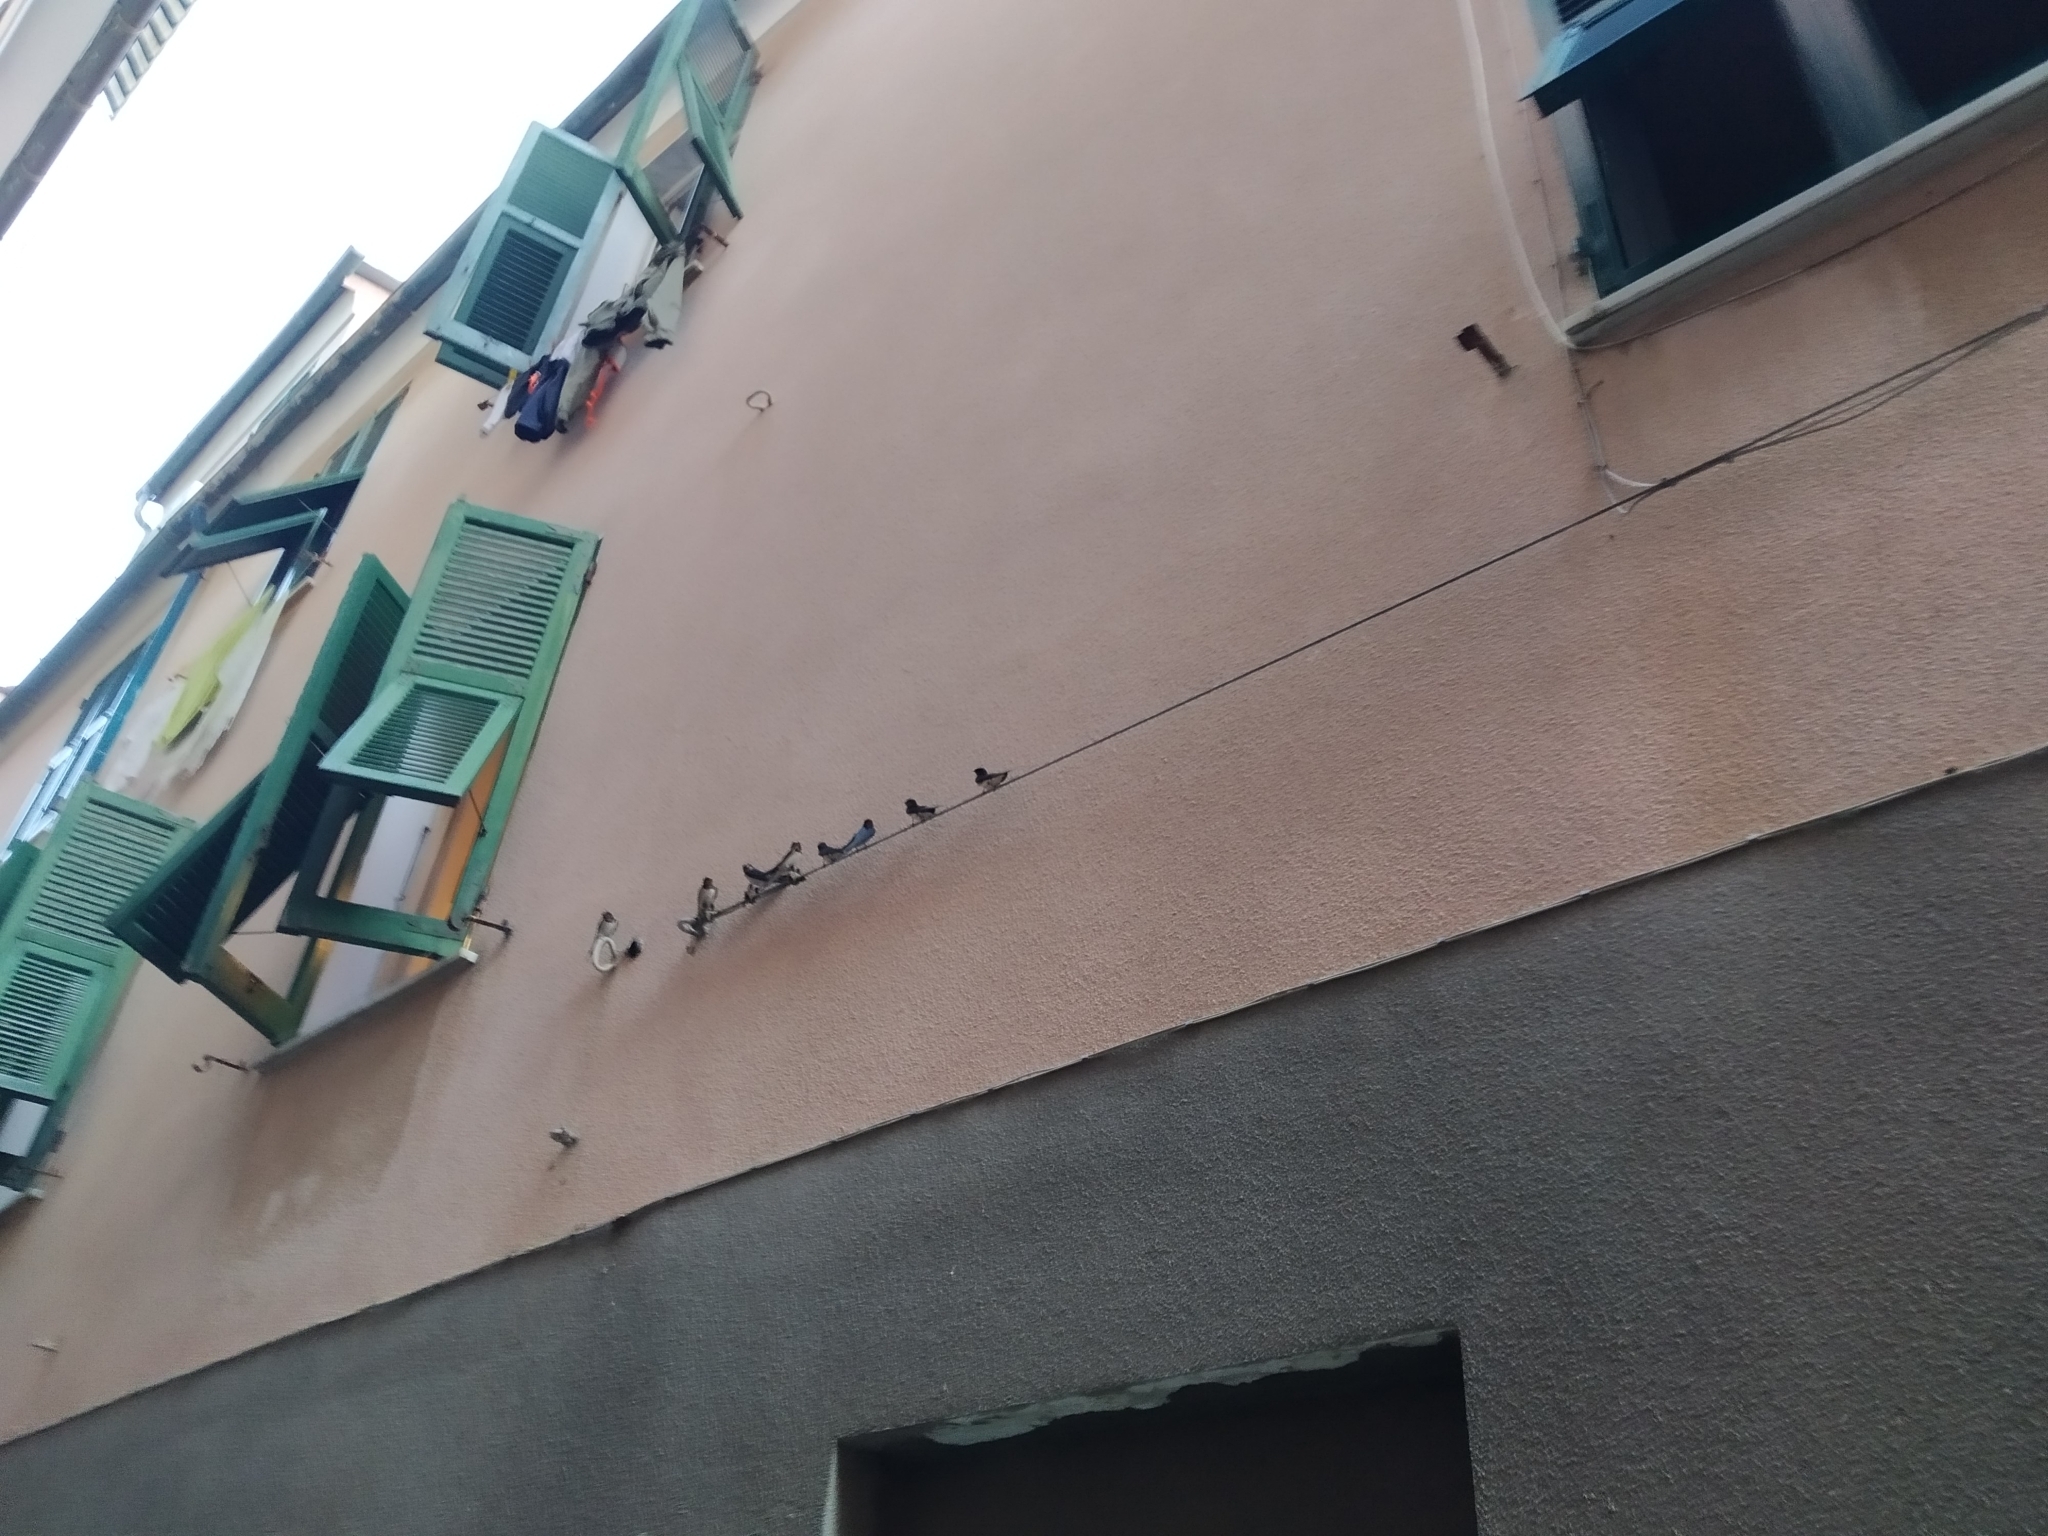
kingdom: Animalia
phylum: Chordata
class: Aves
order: Passeriformes
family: Hirundinidae
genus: Hirundo
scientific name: Hirundo rustica
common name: Barn swallow
